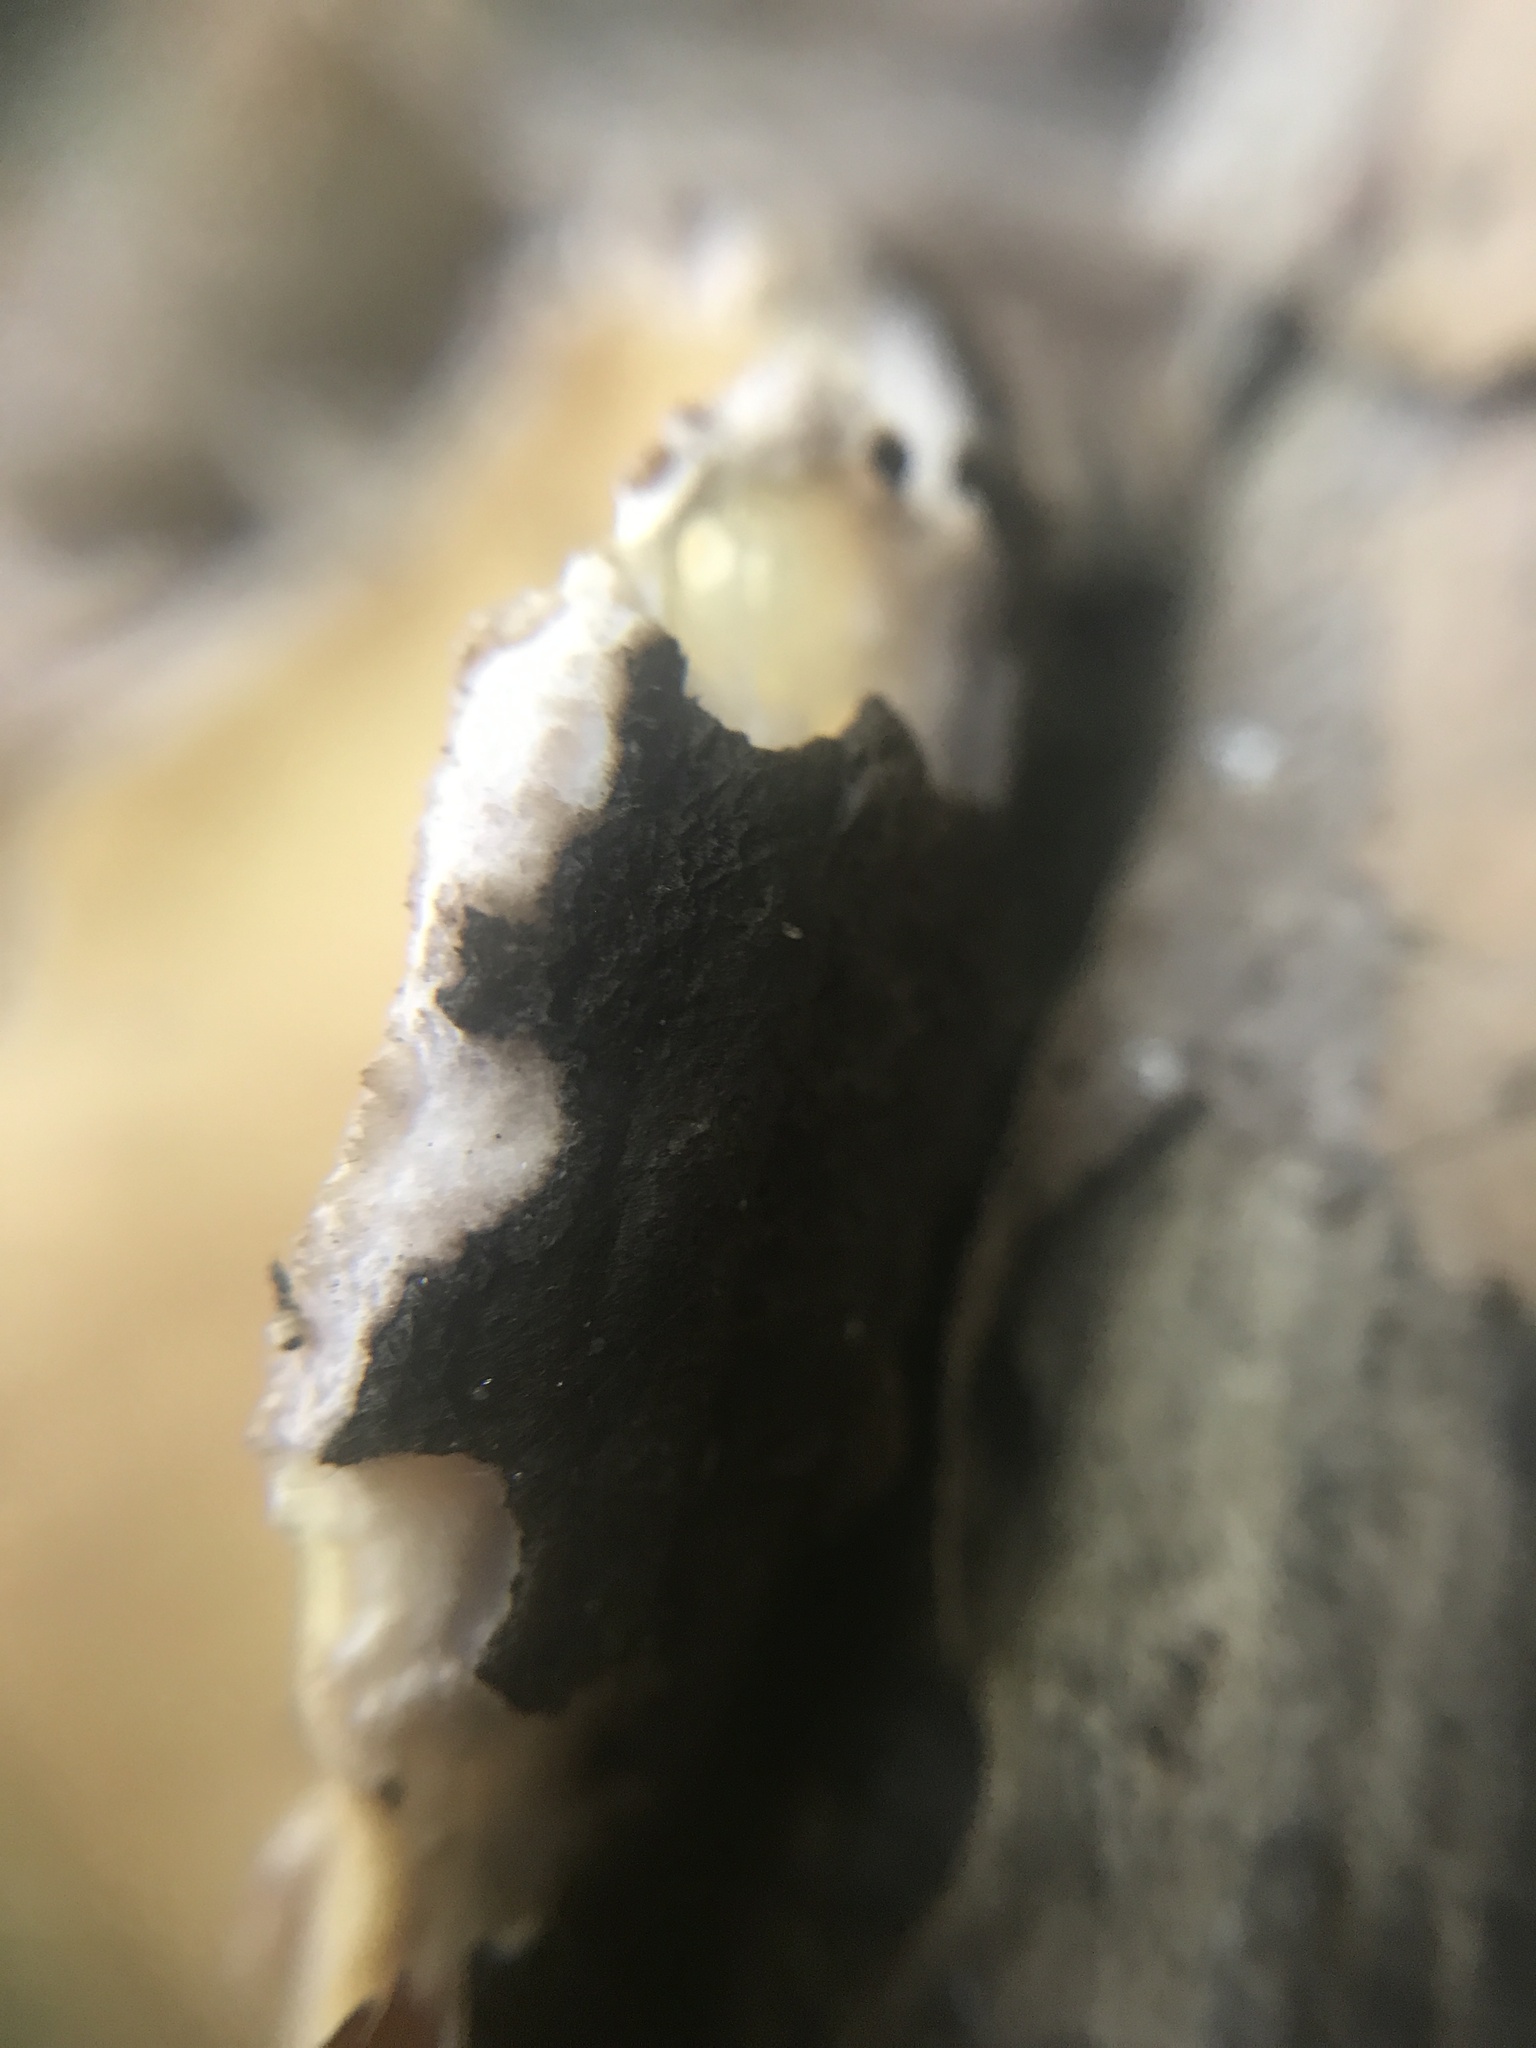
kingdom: Fungi
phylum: Ascomycota
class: Pezizomycetes
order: Pezizales
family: Chorioactidaceae
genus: Wolfina
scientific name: Wolfina aurantiopsis
